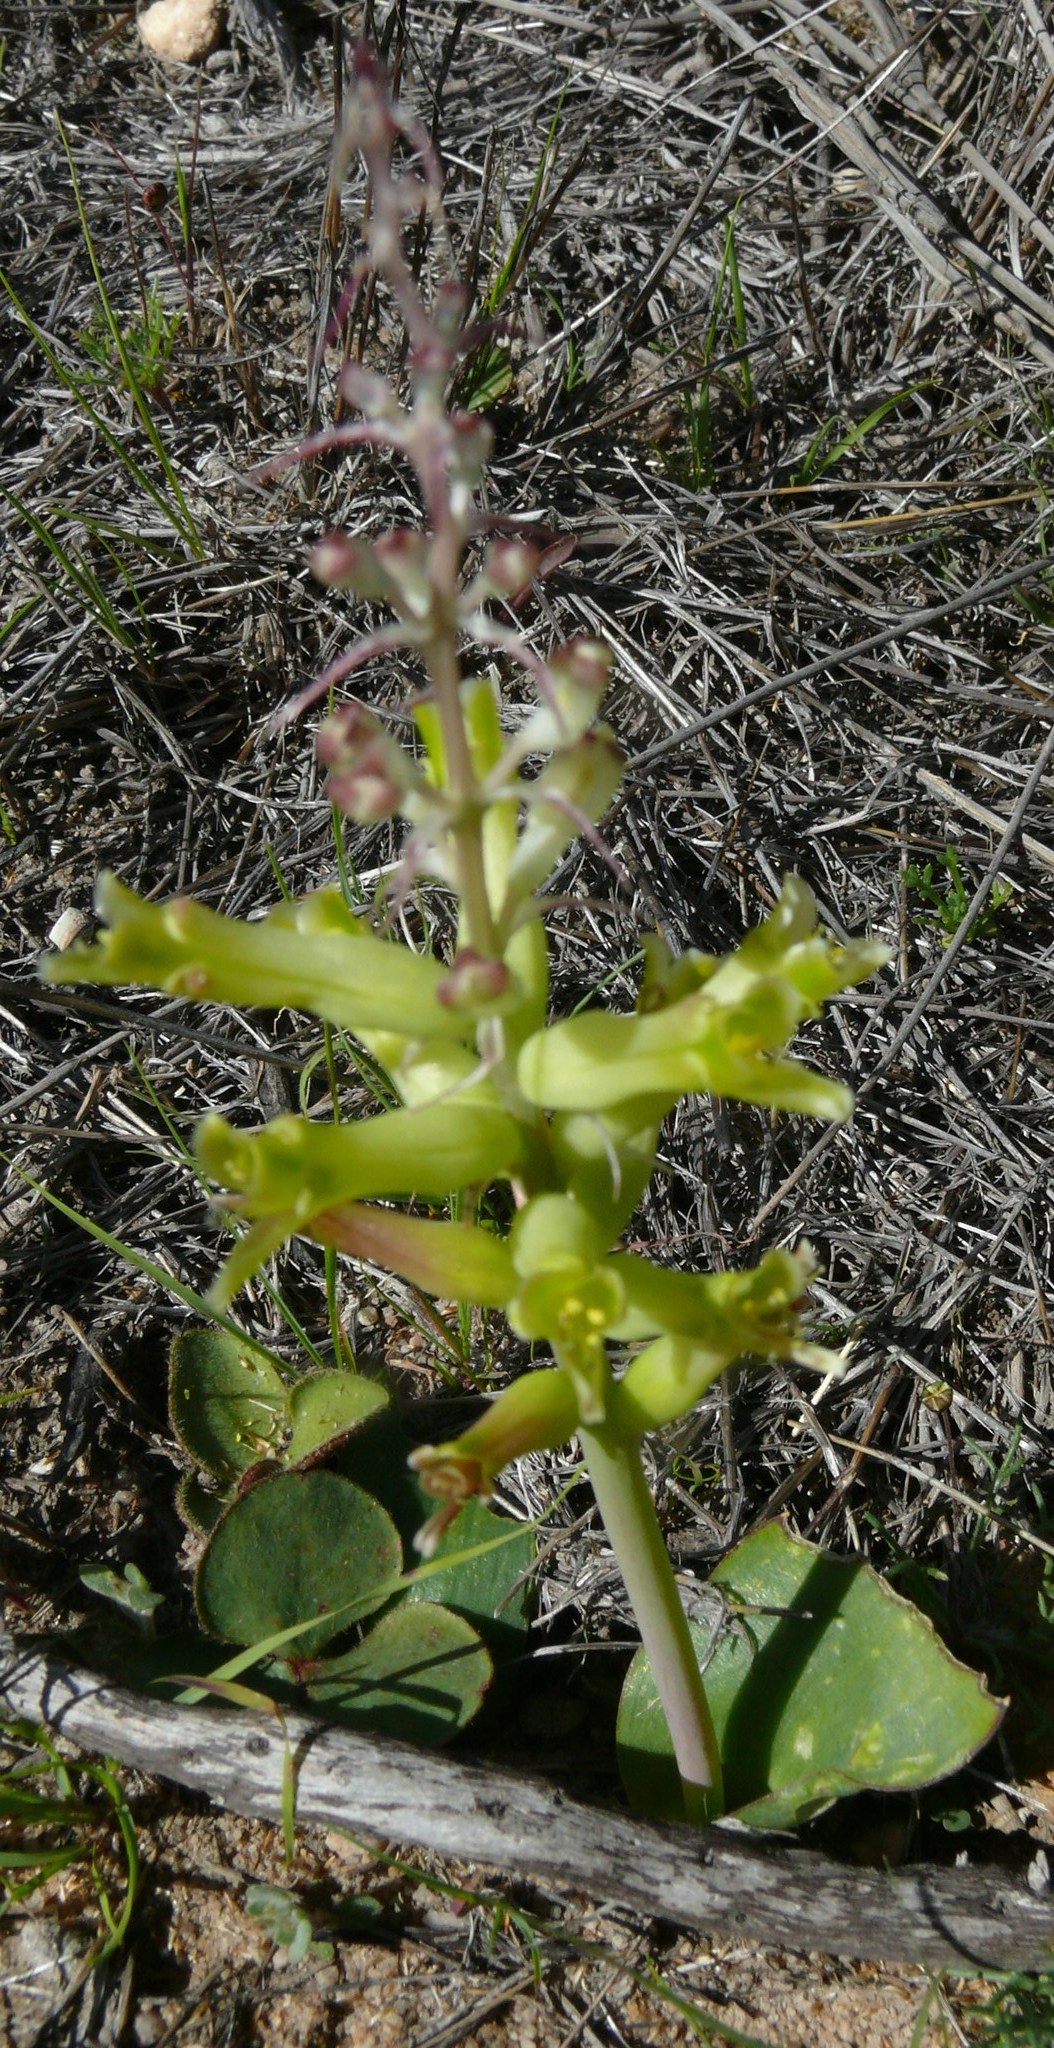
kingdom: Plantae
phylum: Tracheophyta
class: Liliopsida
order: Asparagales
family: Asparagaceae
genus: Lachenalia
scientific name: Lachenalia orchioides
